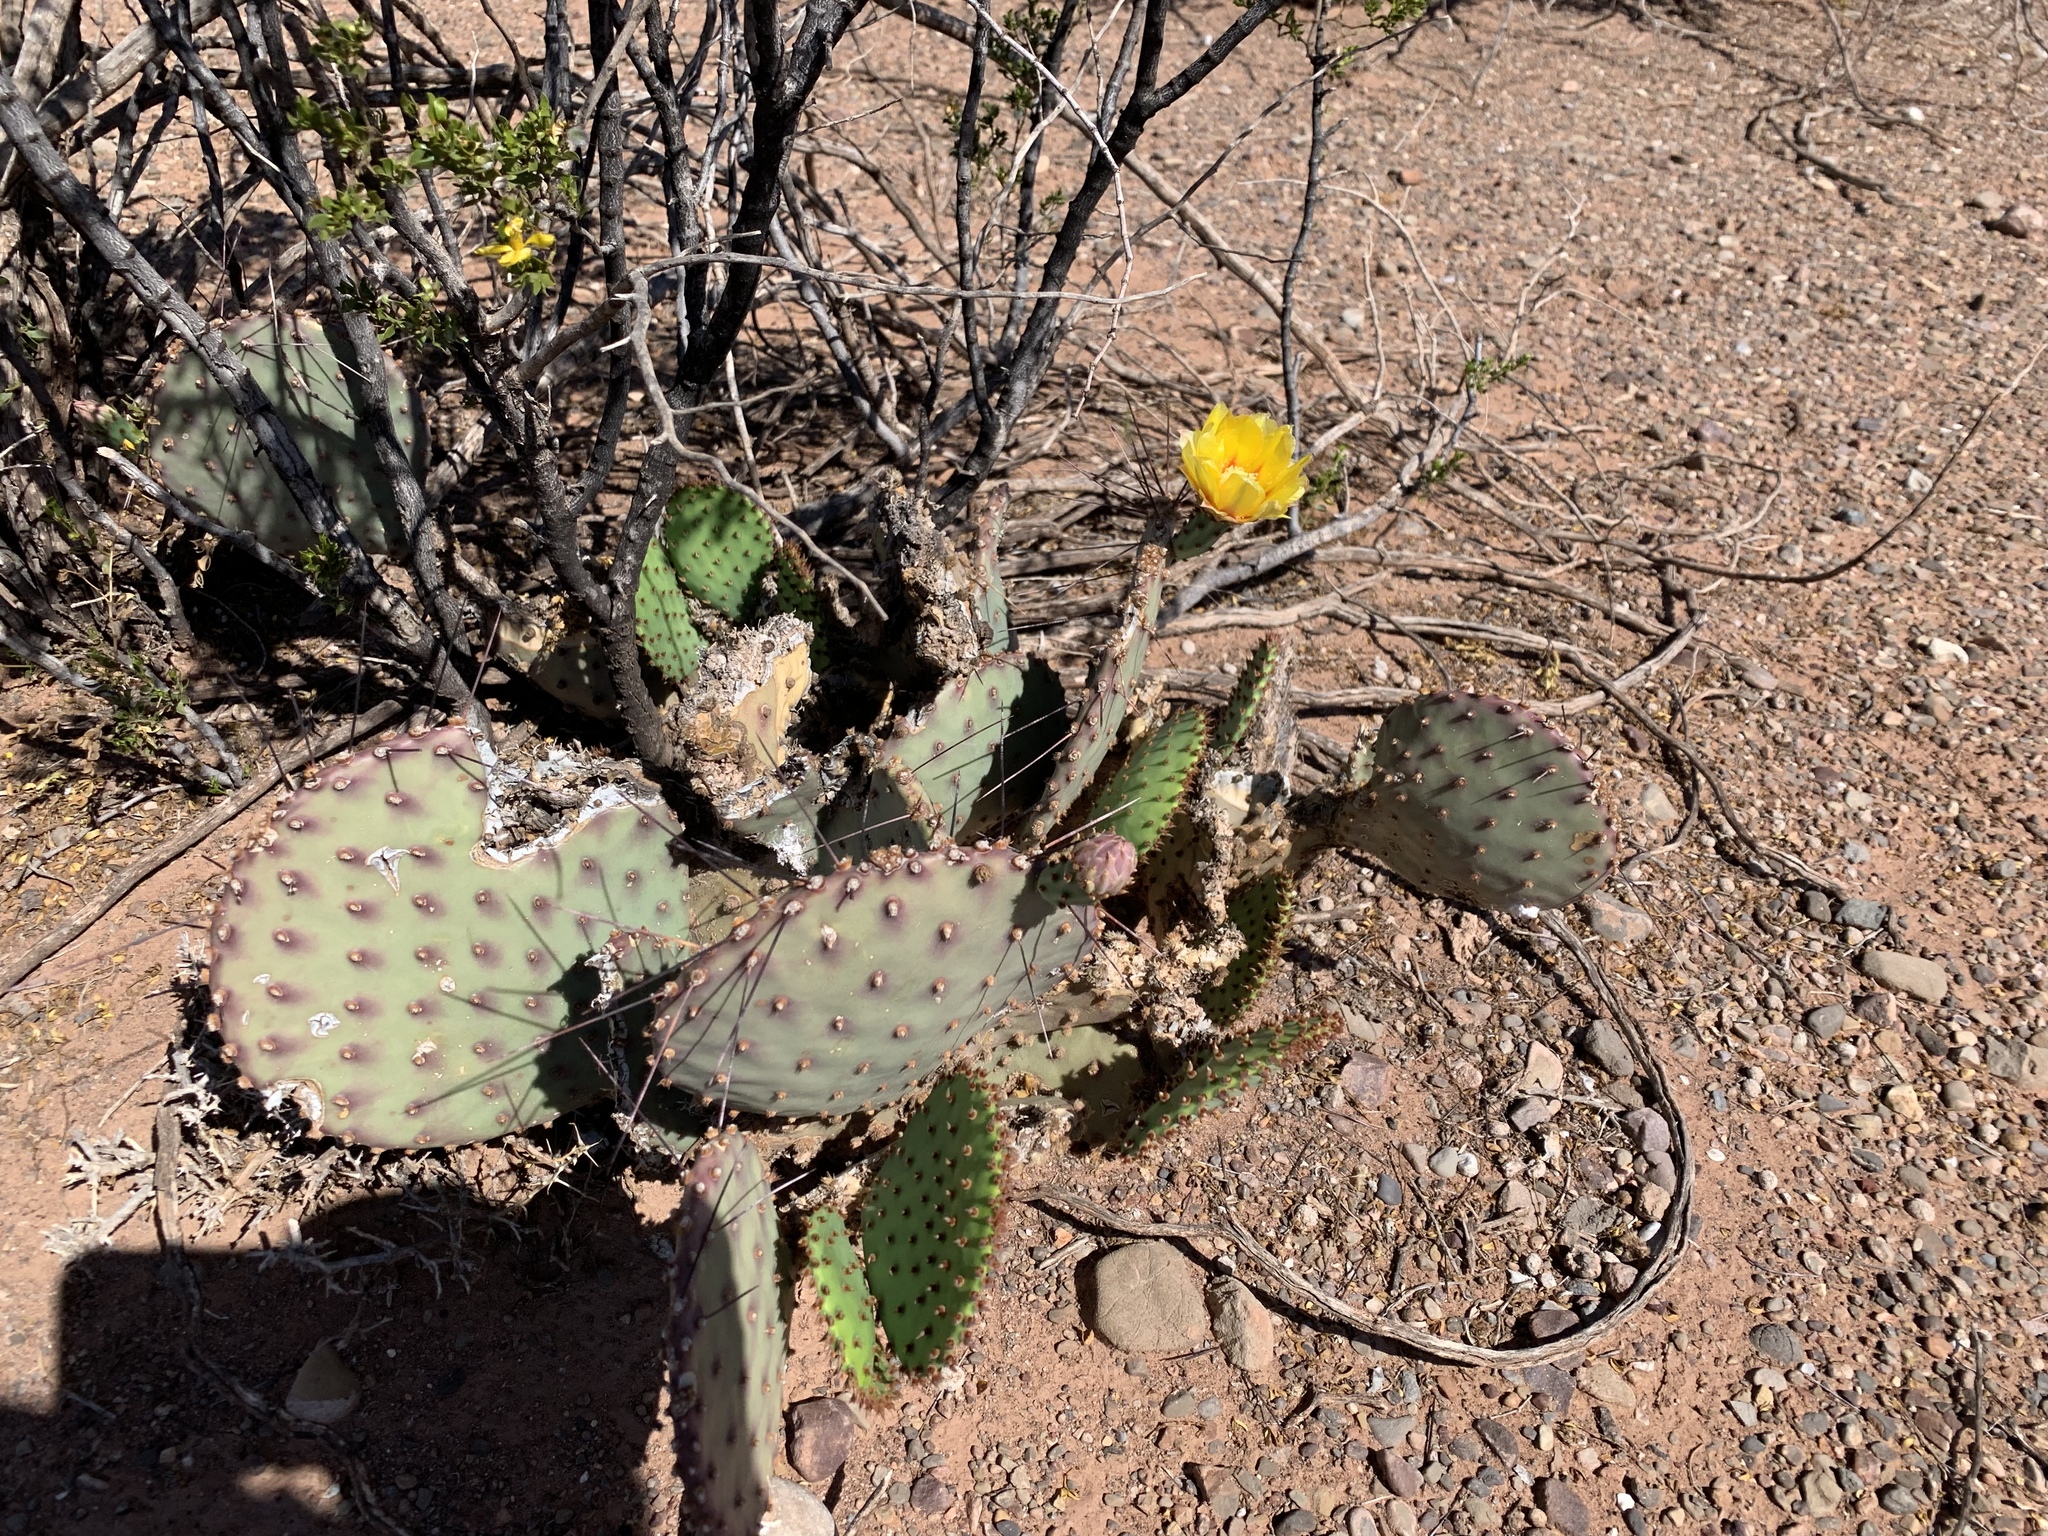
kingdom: Plantae
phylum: Tracheophyta
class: Magnoliopsida
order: Caryophyllales
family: Cactaceae
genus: Opuntia
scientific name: Opuntia macrocentra
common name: Purple prickly-pear
